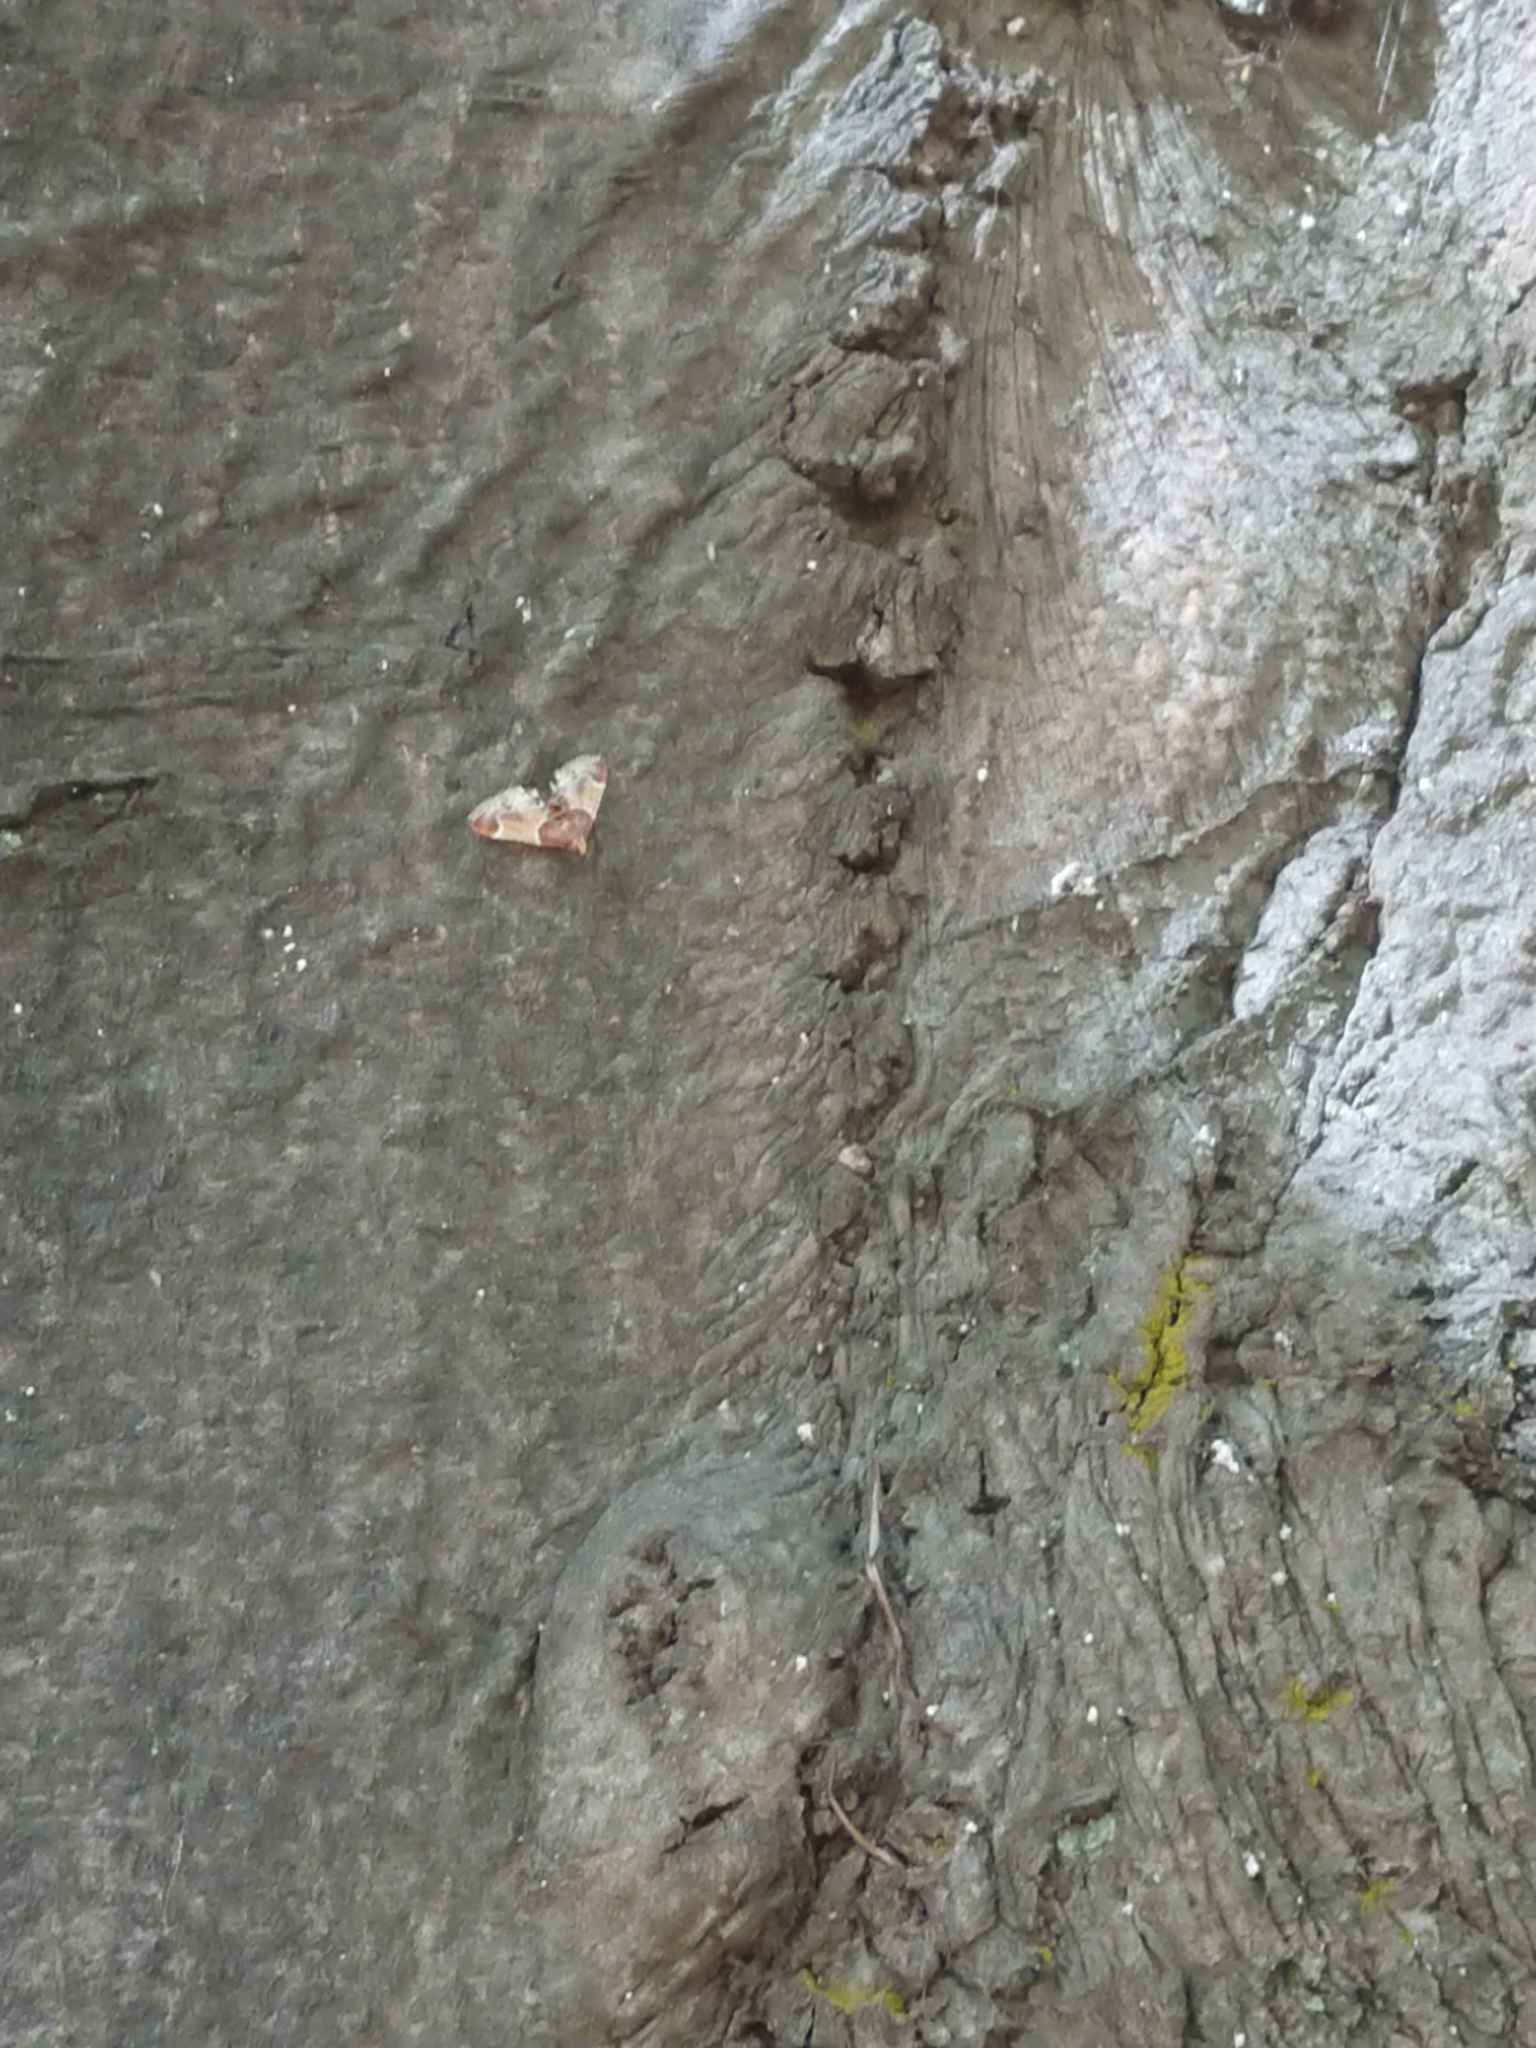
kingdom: Animalia
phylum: Arthropoda
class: Insecta
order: Lepidoptera
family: Pyralidae
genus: Pyralis
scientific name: Pyralis farinalis
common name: Meal moth
